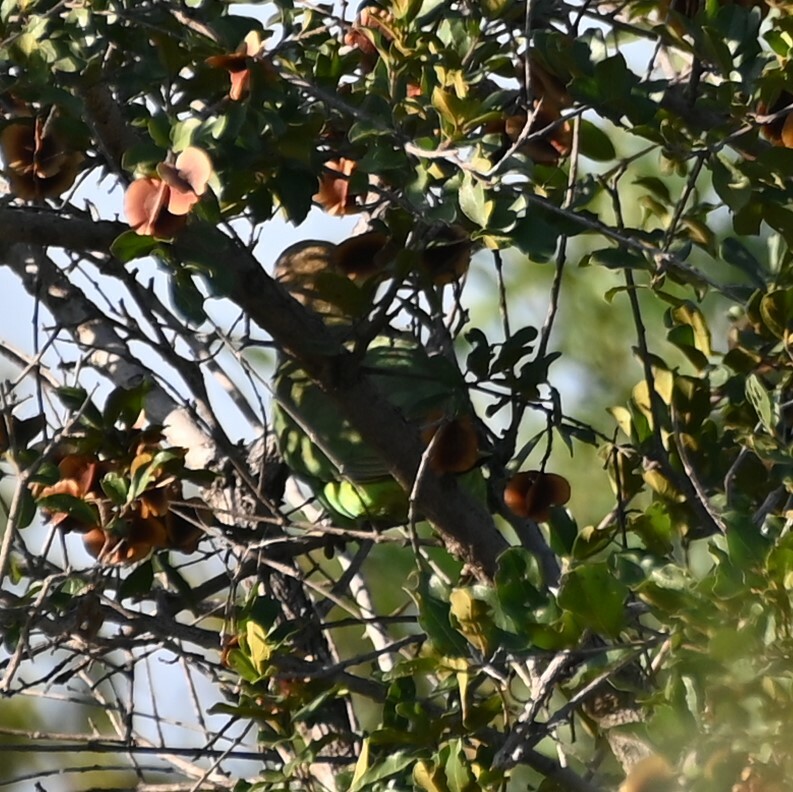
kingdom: Animalia
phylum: Chordata
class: Aves
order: Psittaciformes
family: Psittacidae
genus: Poicephalus
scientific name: Poicephalus cryptoxanthus
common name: Brown-headed parrot
